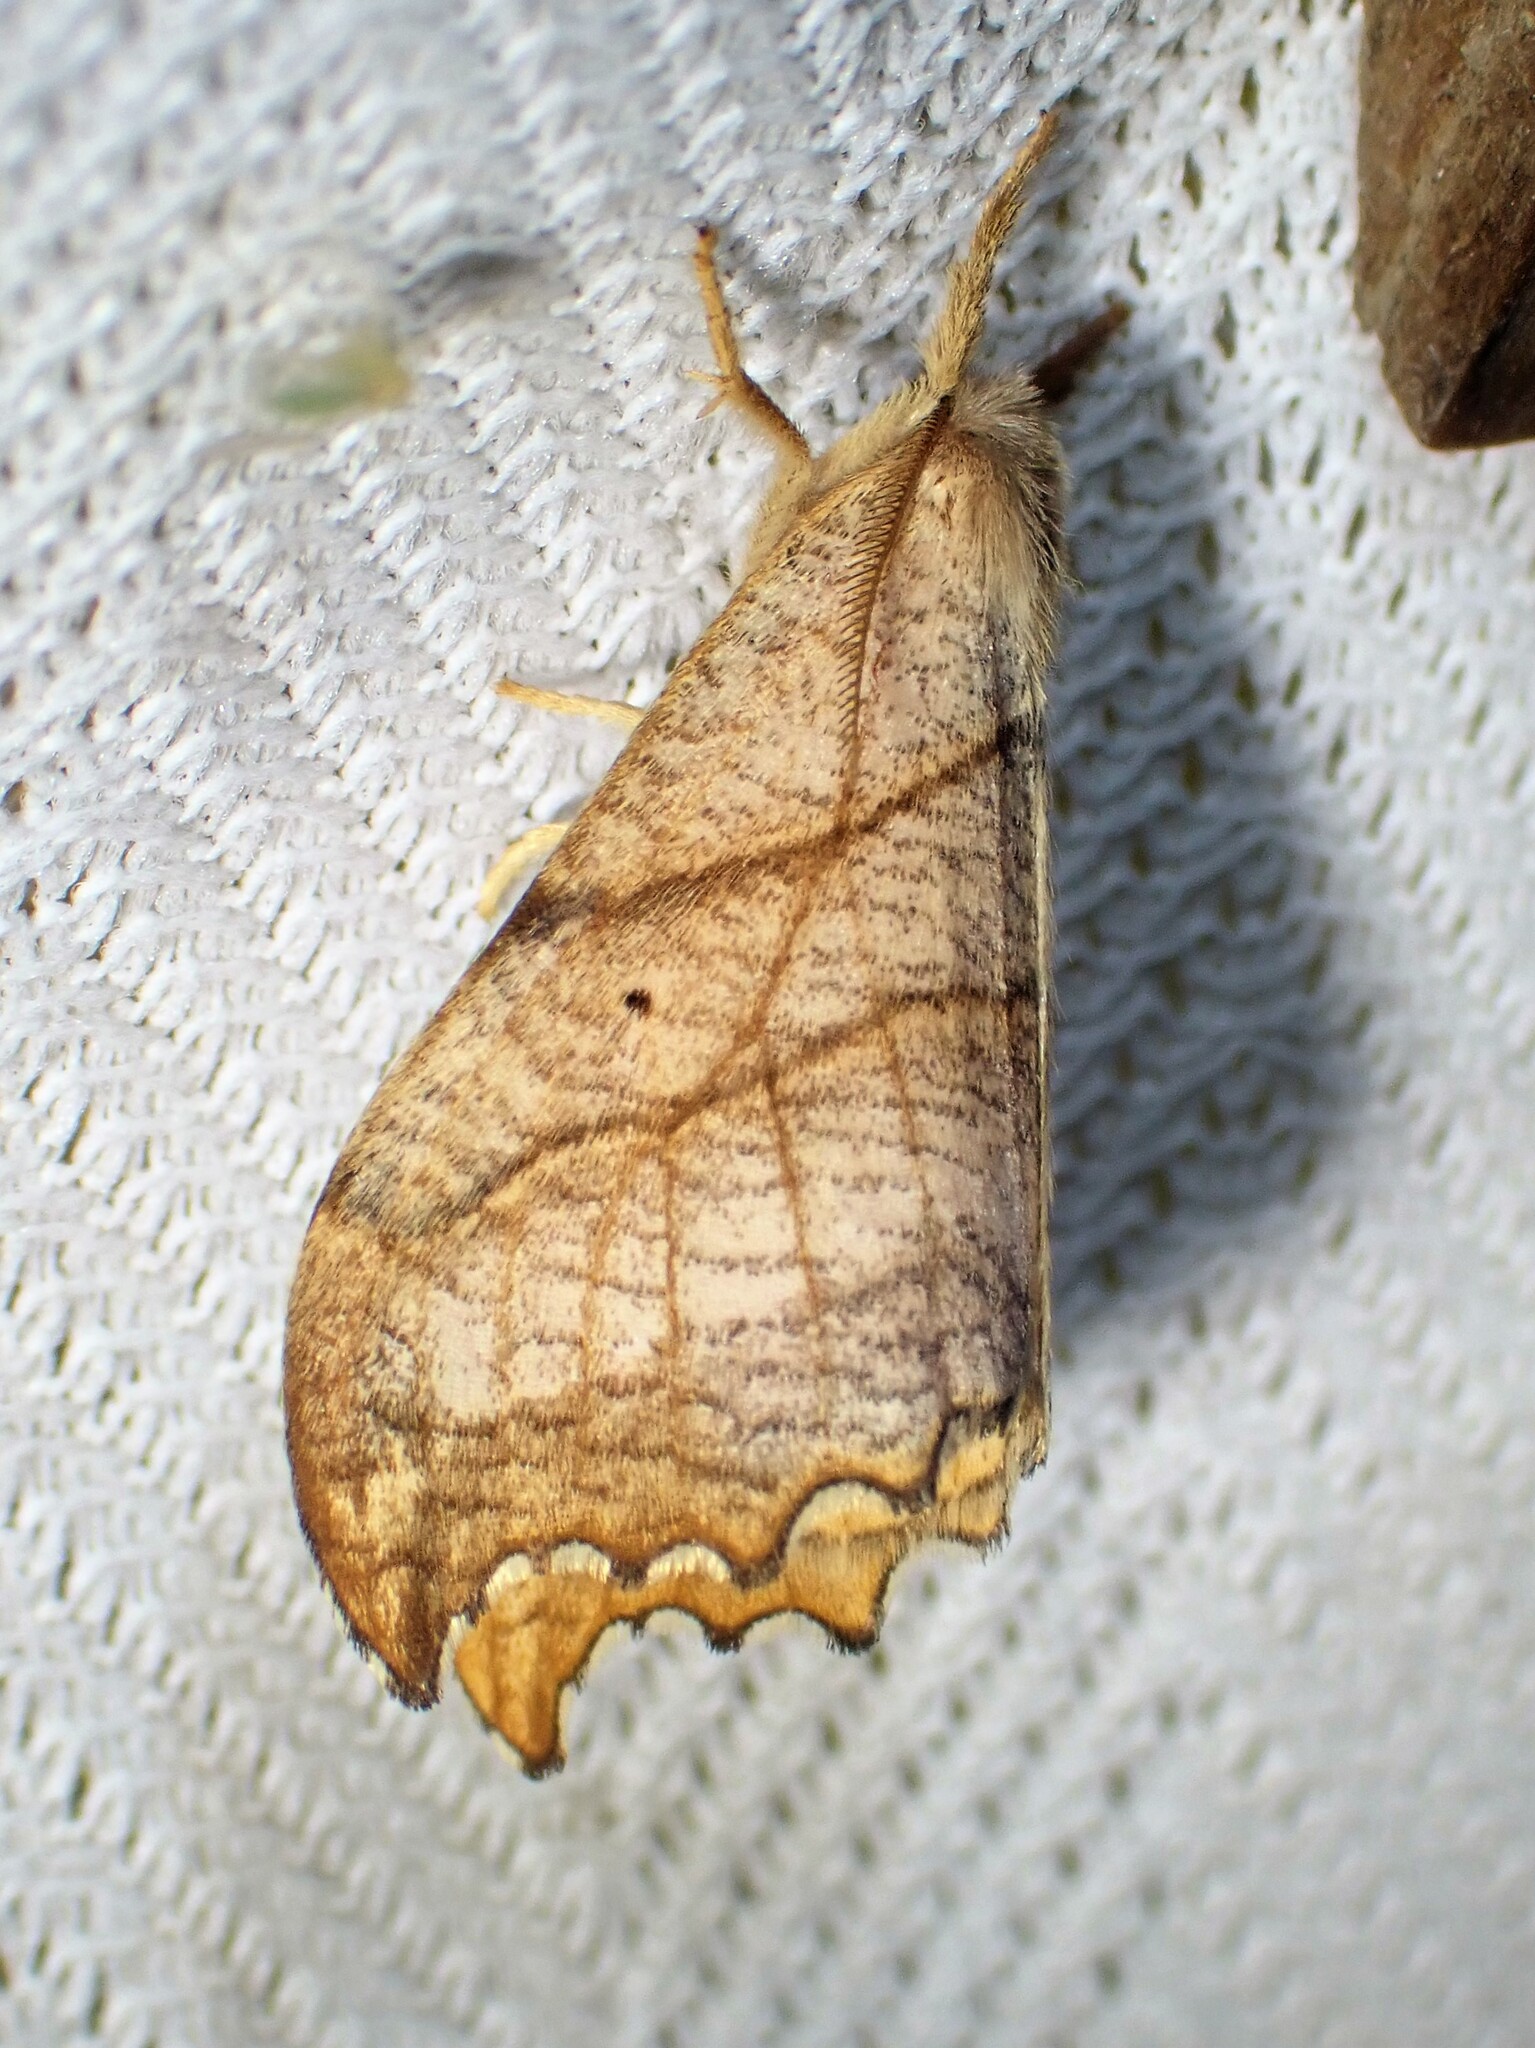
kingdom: Animalia
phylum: Arthropoda
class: Insecta
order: Lepidoptera
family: Drepanidae
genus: Falcaria
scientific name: Falcaria bilineata
